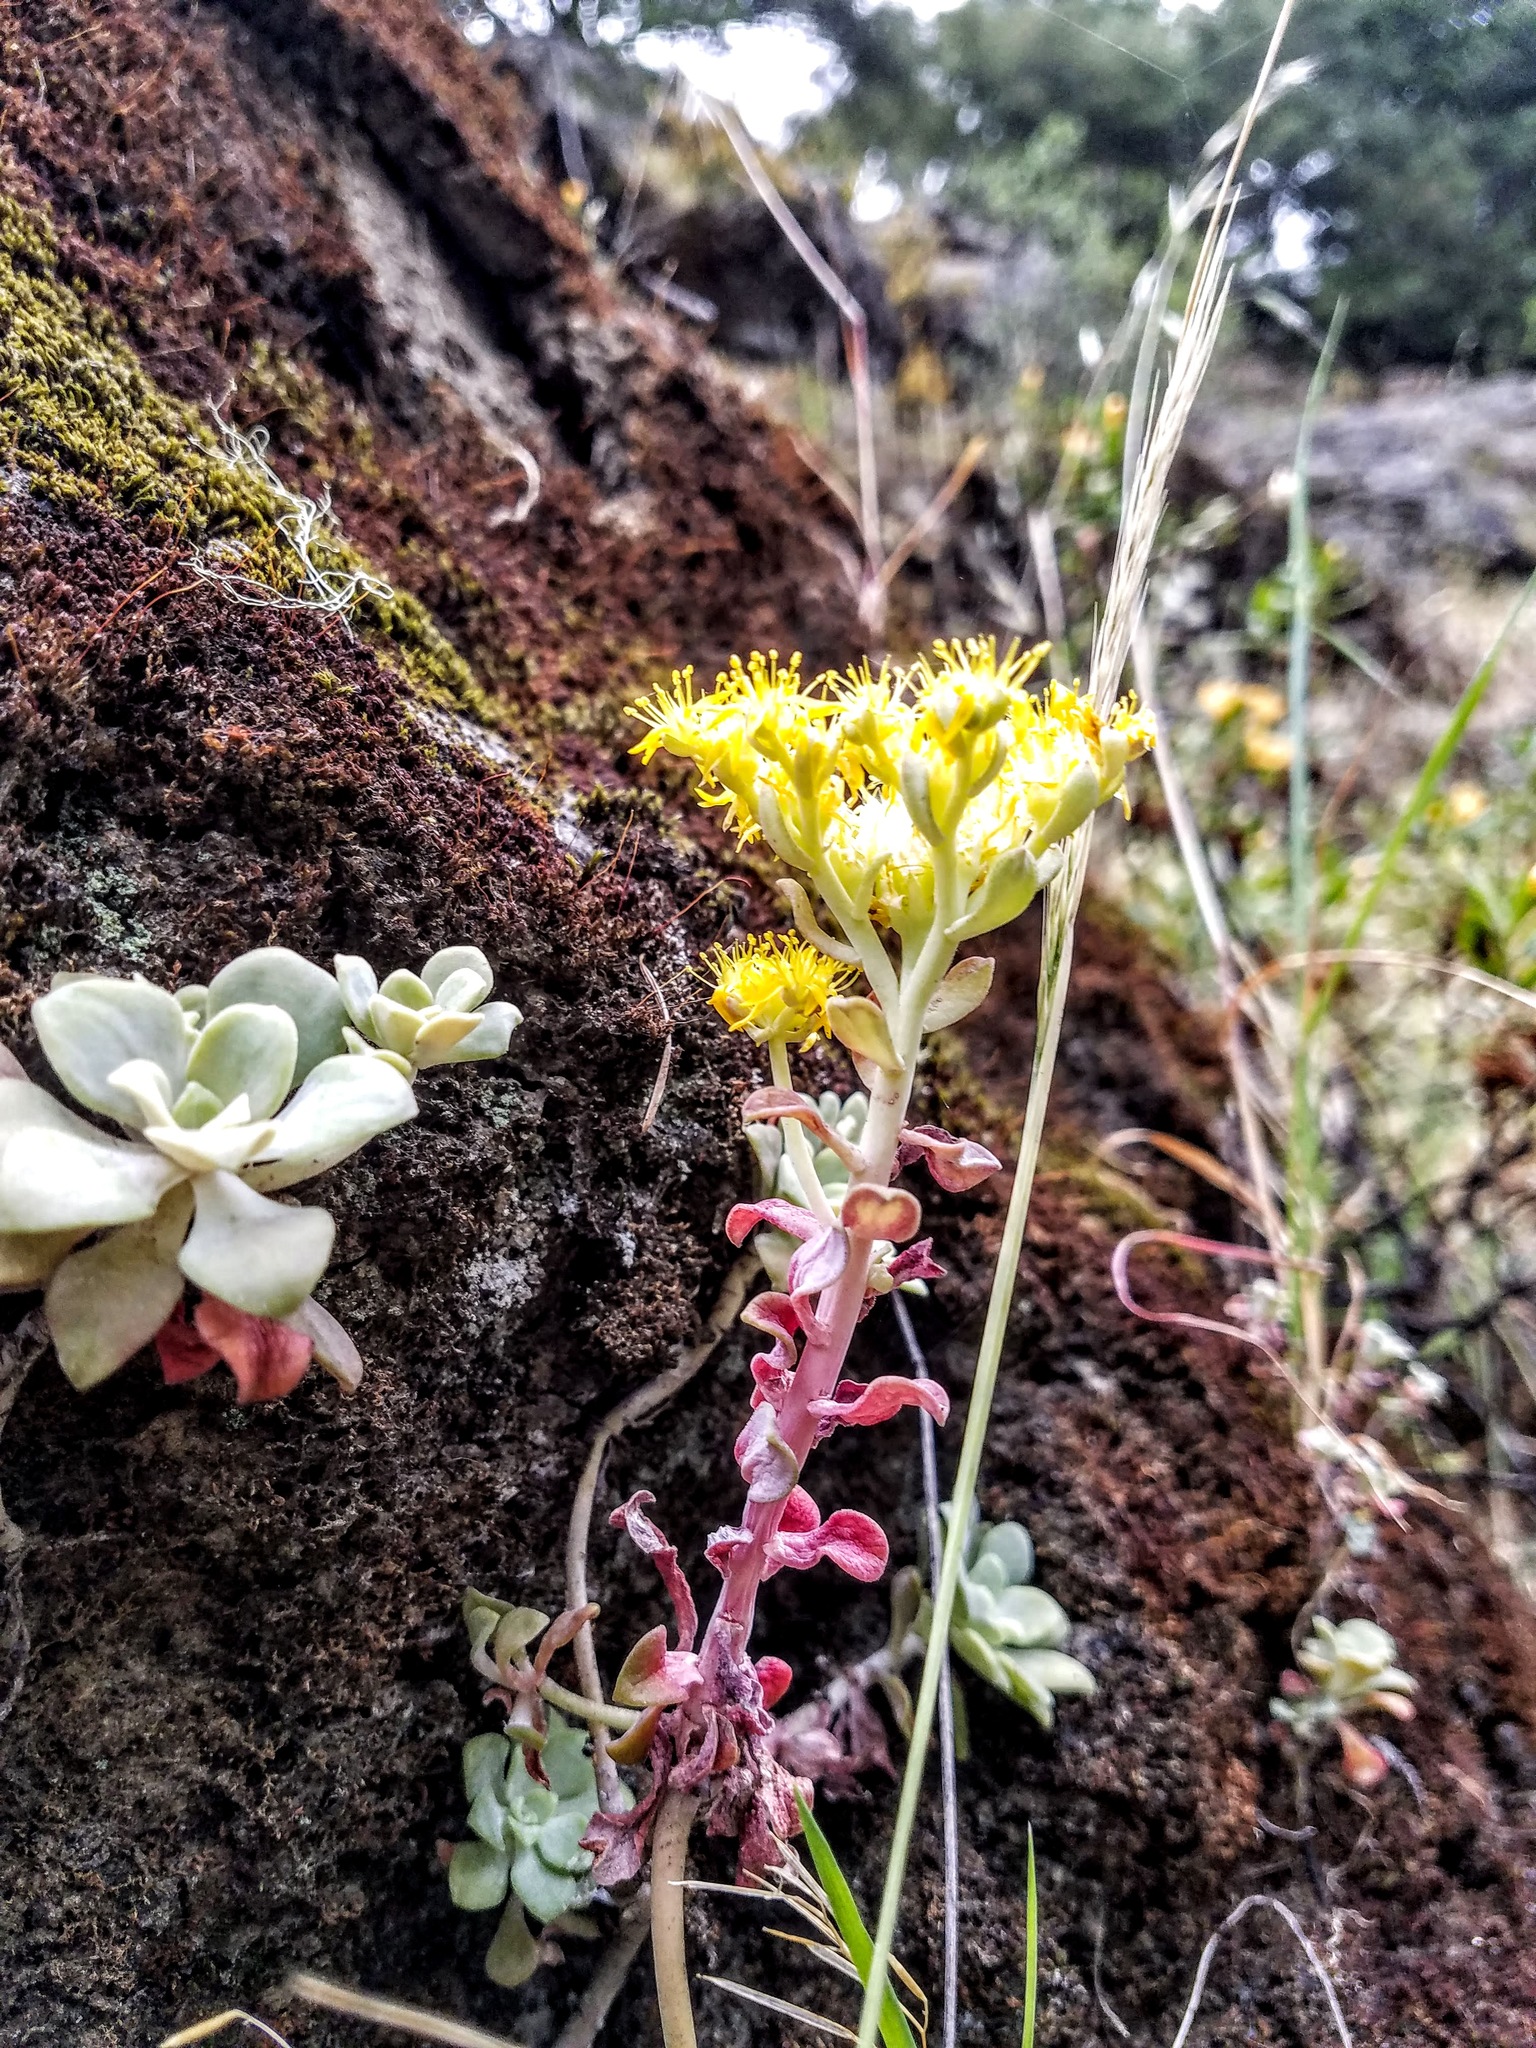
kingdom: Plantae
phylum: Tracheophyta
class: Magnoliopsida
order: Saxifragales
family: Crassulaceae
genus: Sedum
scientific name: Sedum spathulifolium
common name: Colorado stonecrop
